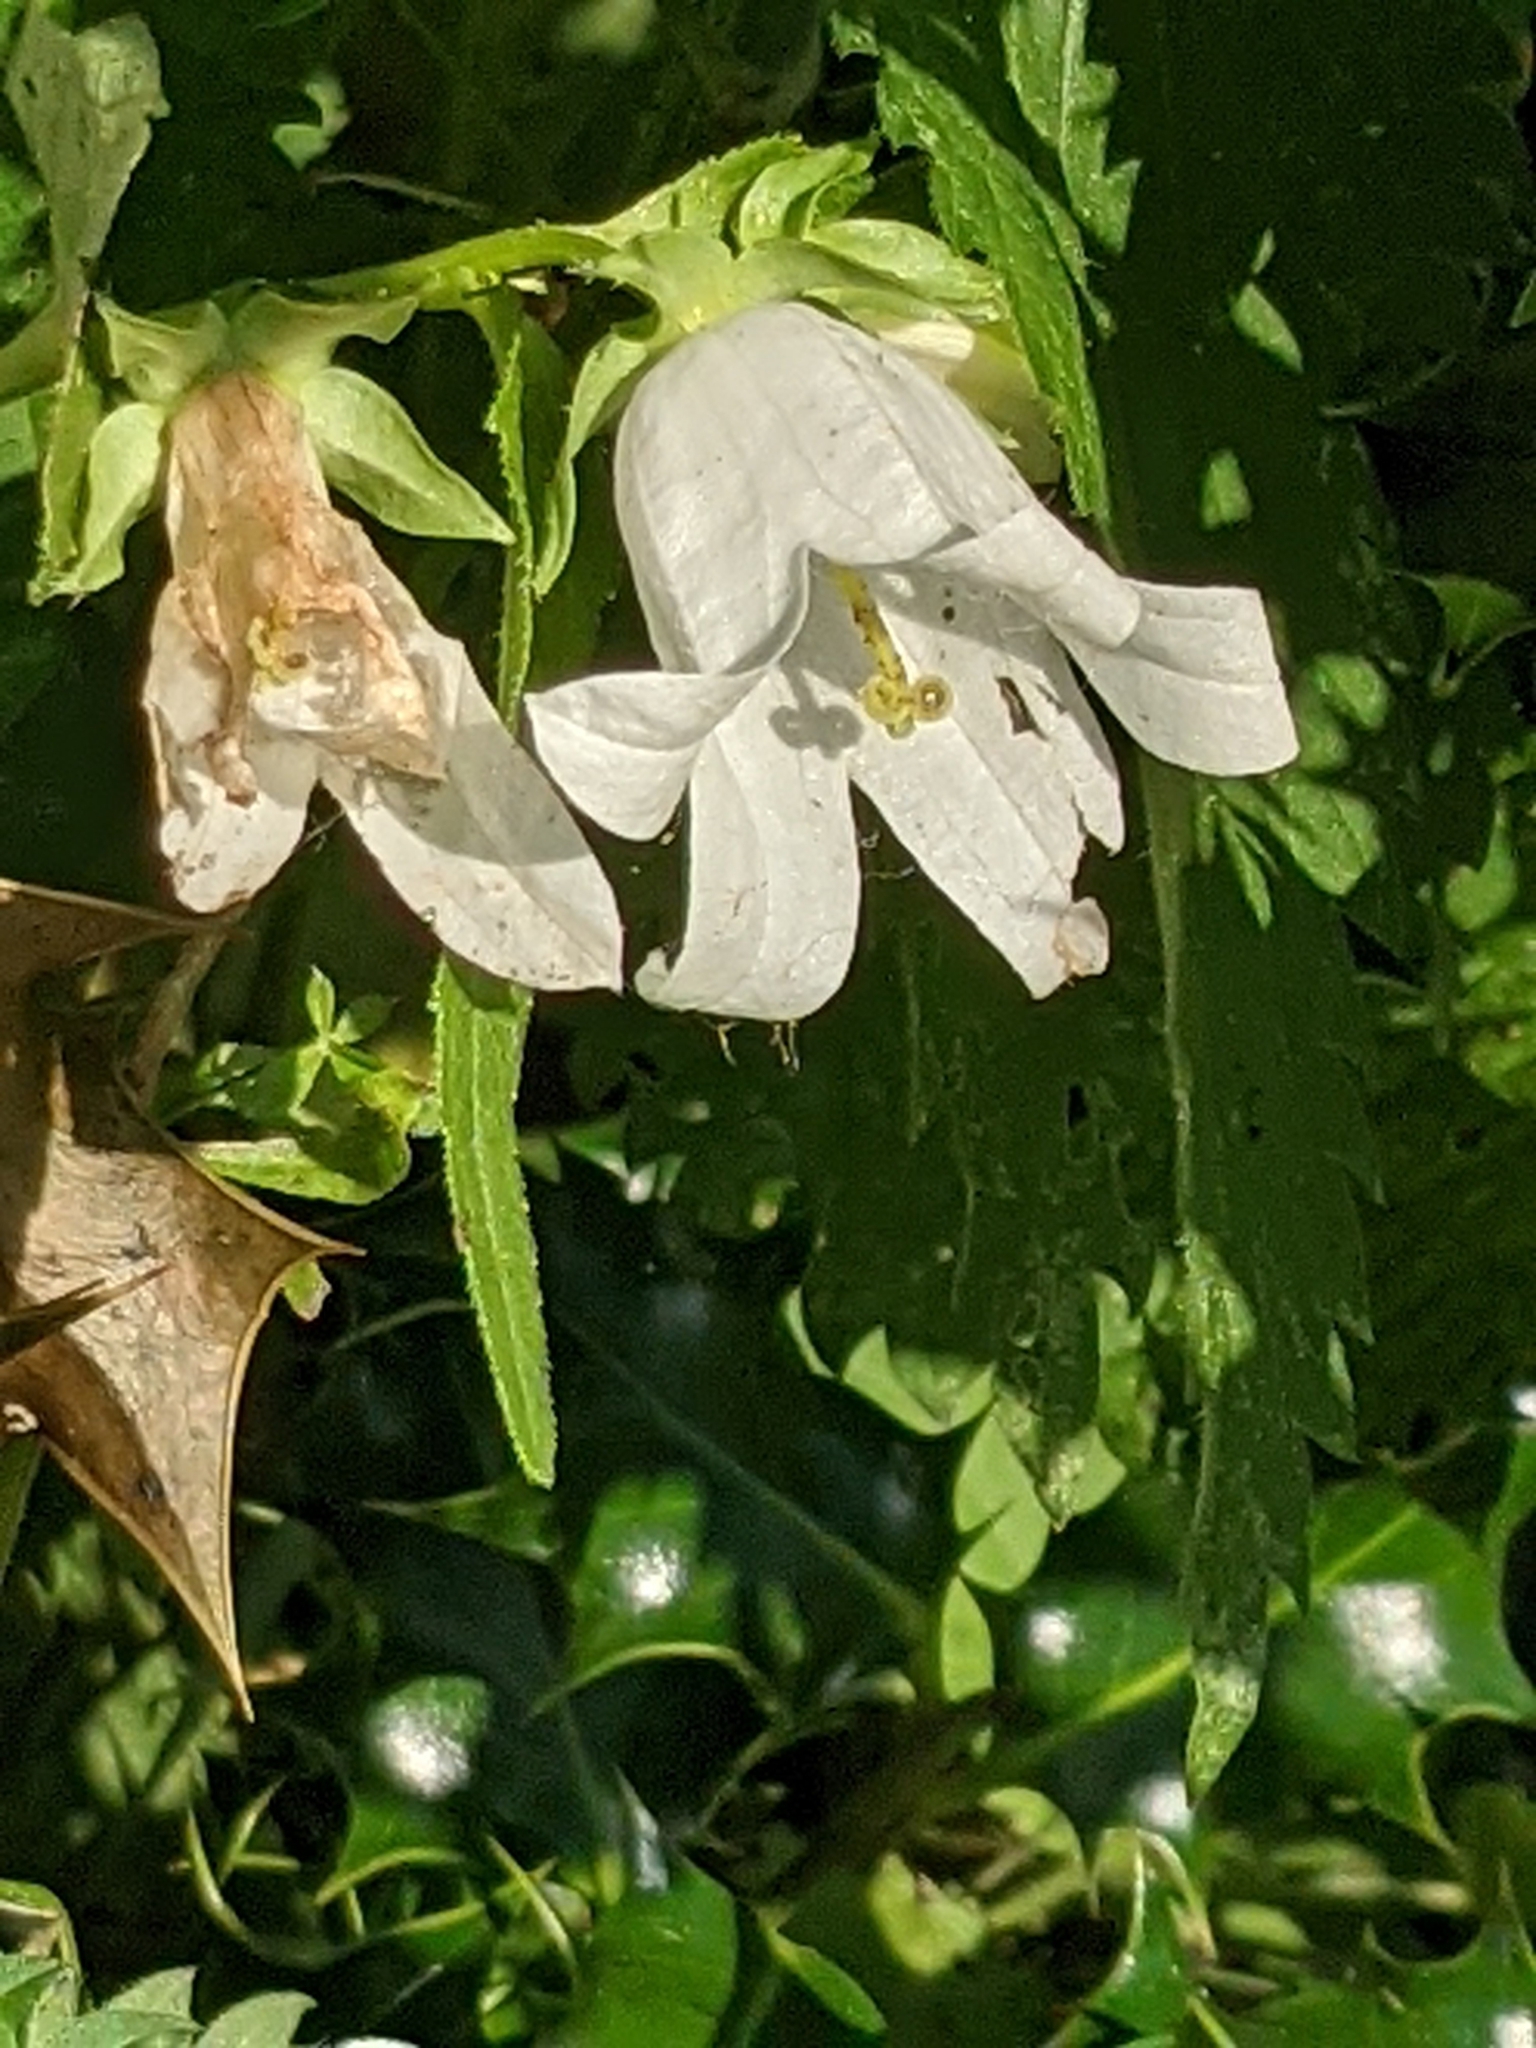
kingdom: Plantae
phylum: Tracheophyta
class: Magnoliopsida
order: Asterales
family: Campanulaceae
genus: Campanula
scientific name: Campanula trachelium
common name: Nettle-leaved bellflower
